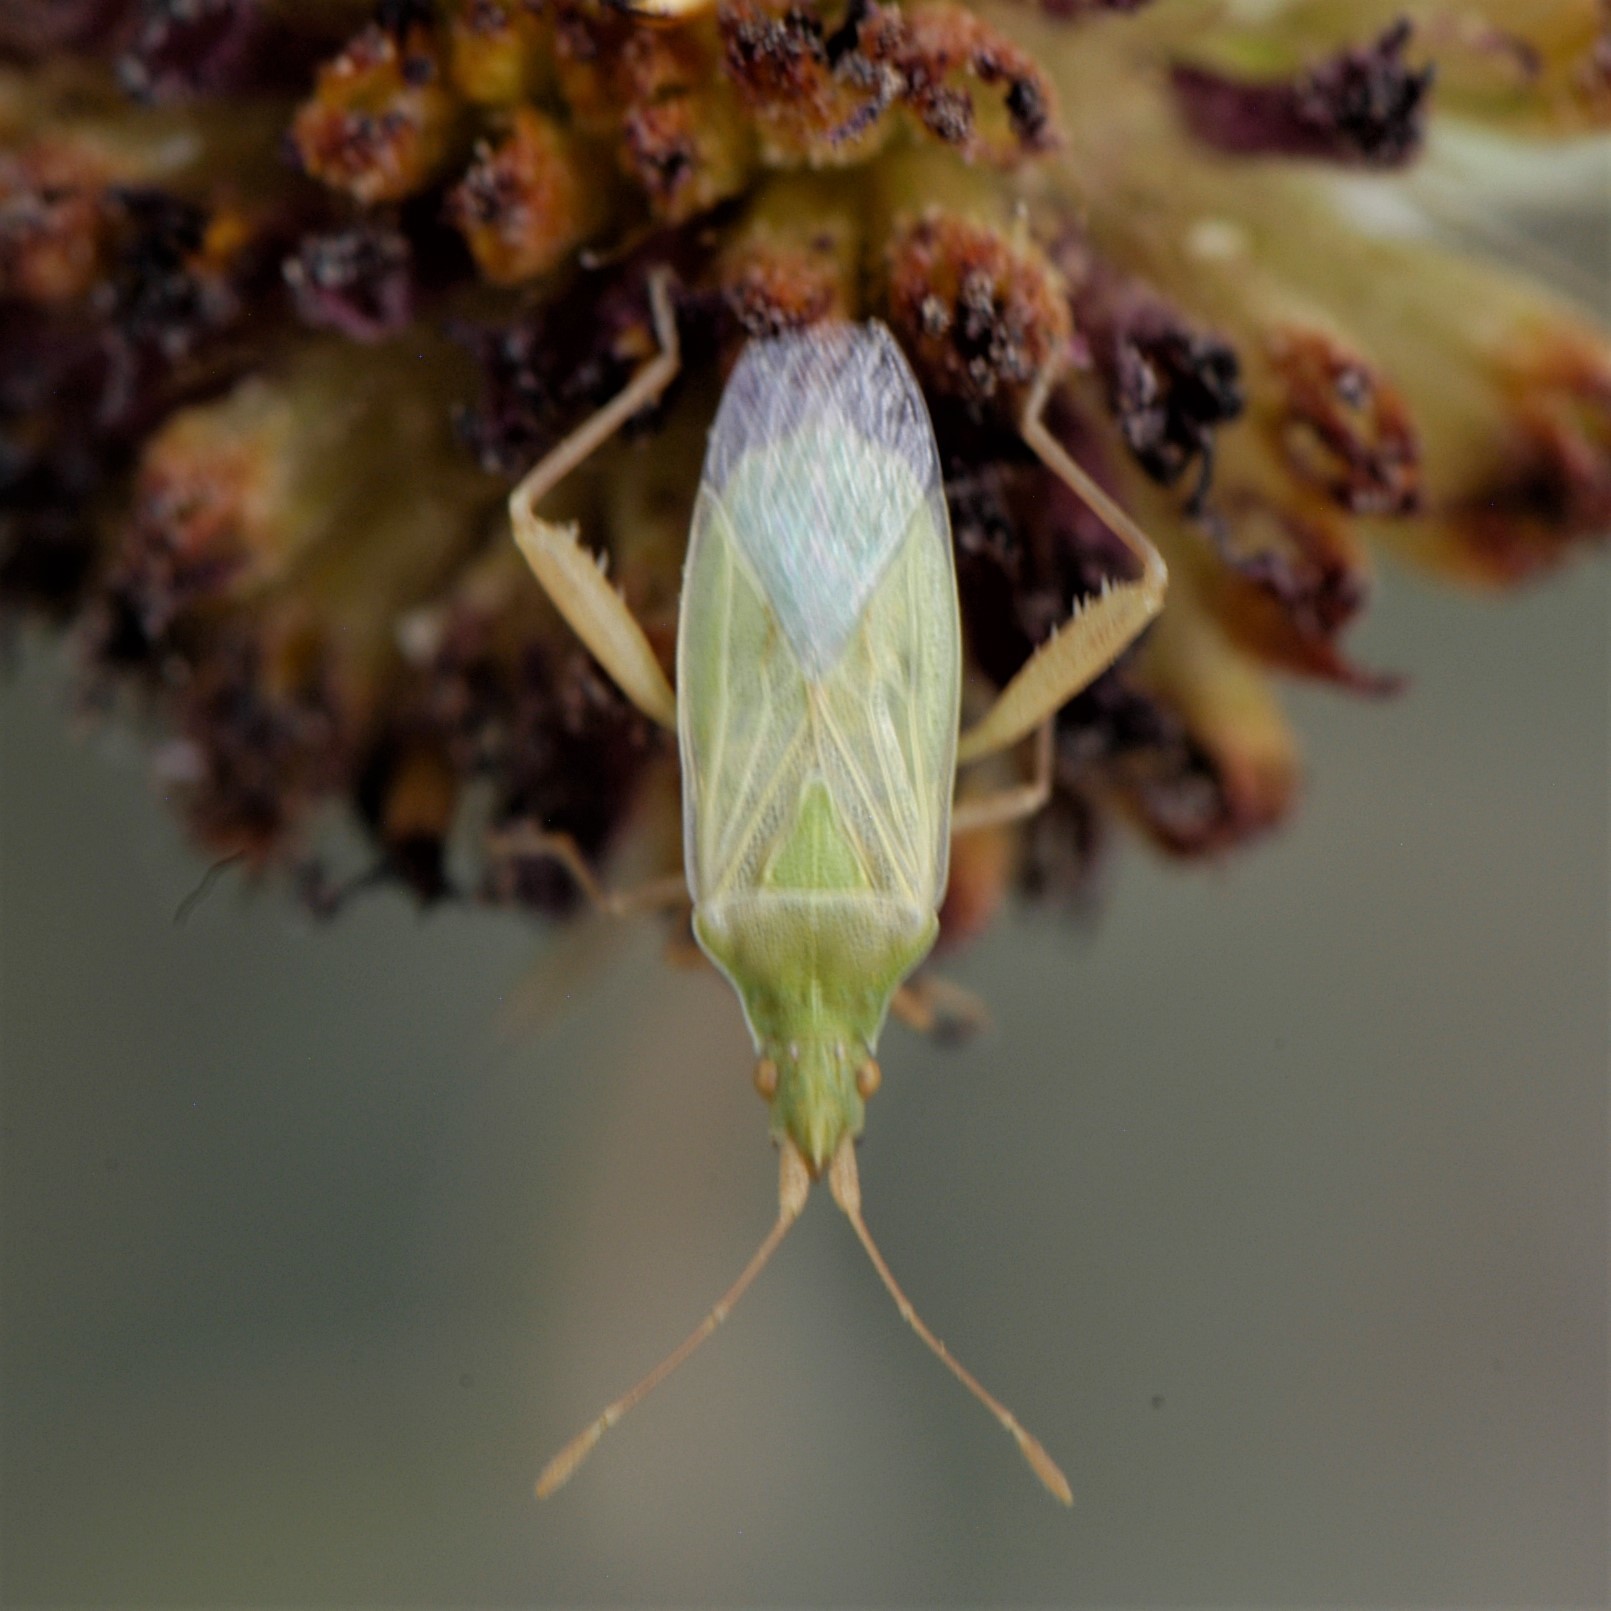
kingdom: Animalia
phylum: Arthropoda
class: Insecta
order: Hemiptera
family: Rhopalidae
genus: Harmostes
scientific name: Harmostes reflexulus
